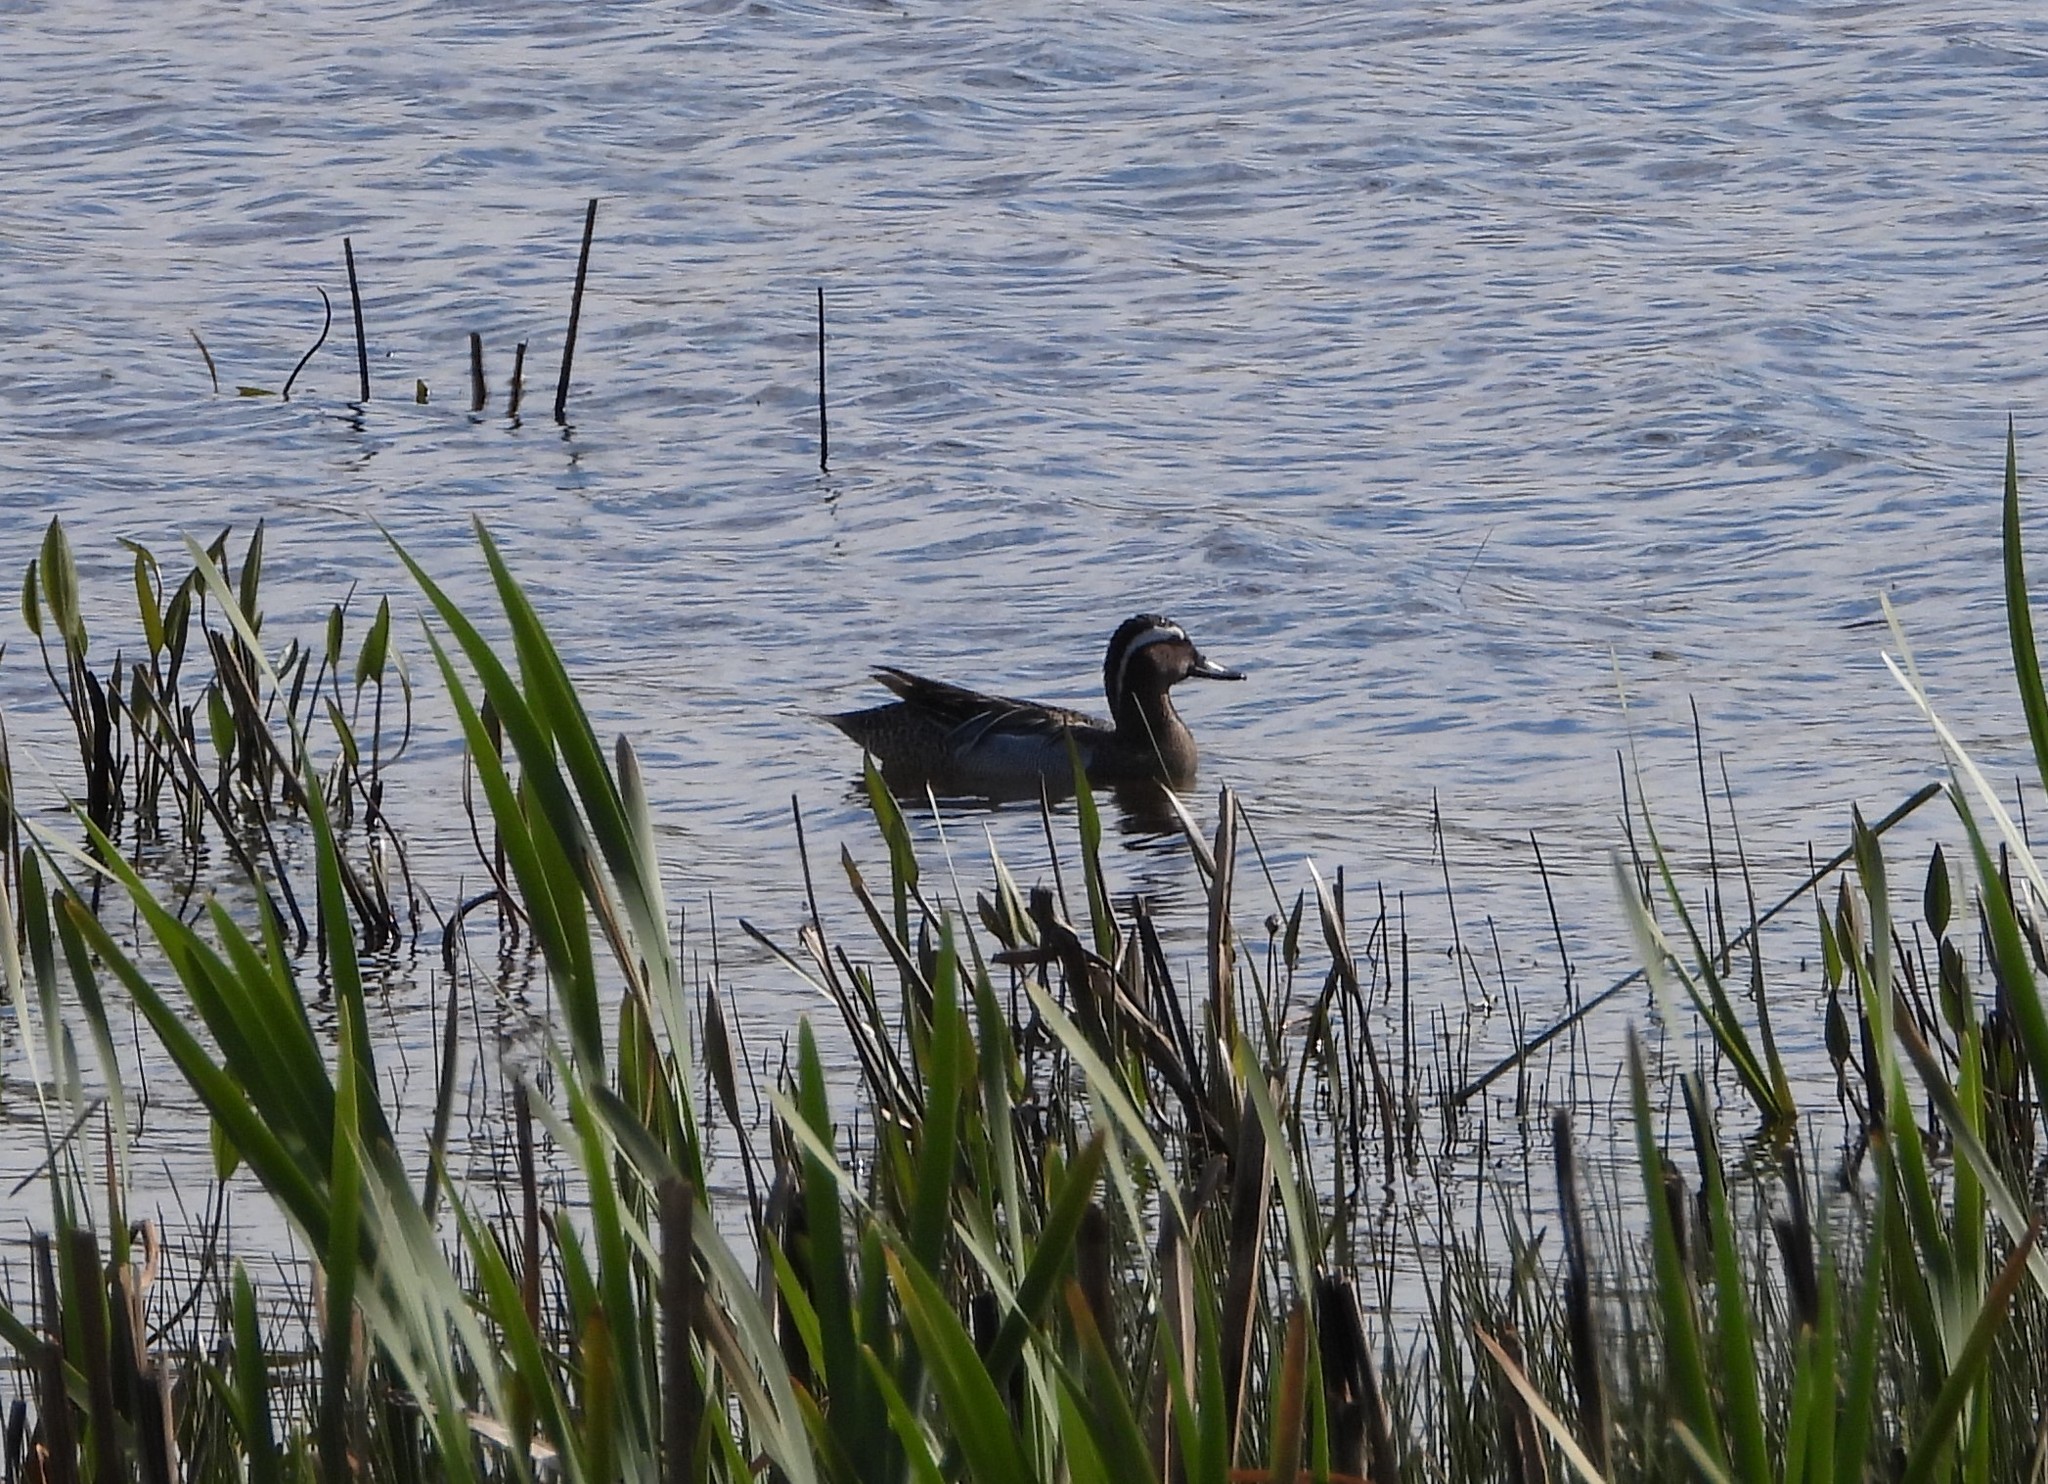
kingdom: Animalia
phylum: Chordata
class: Aves
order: Anseriformes
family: Anatidae
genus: Spatula
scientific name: Spatula querquedula
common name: Garganey
